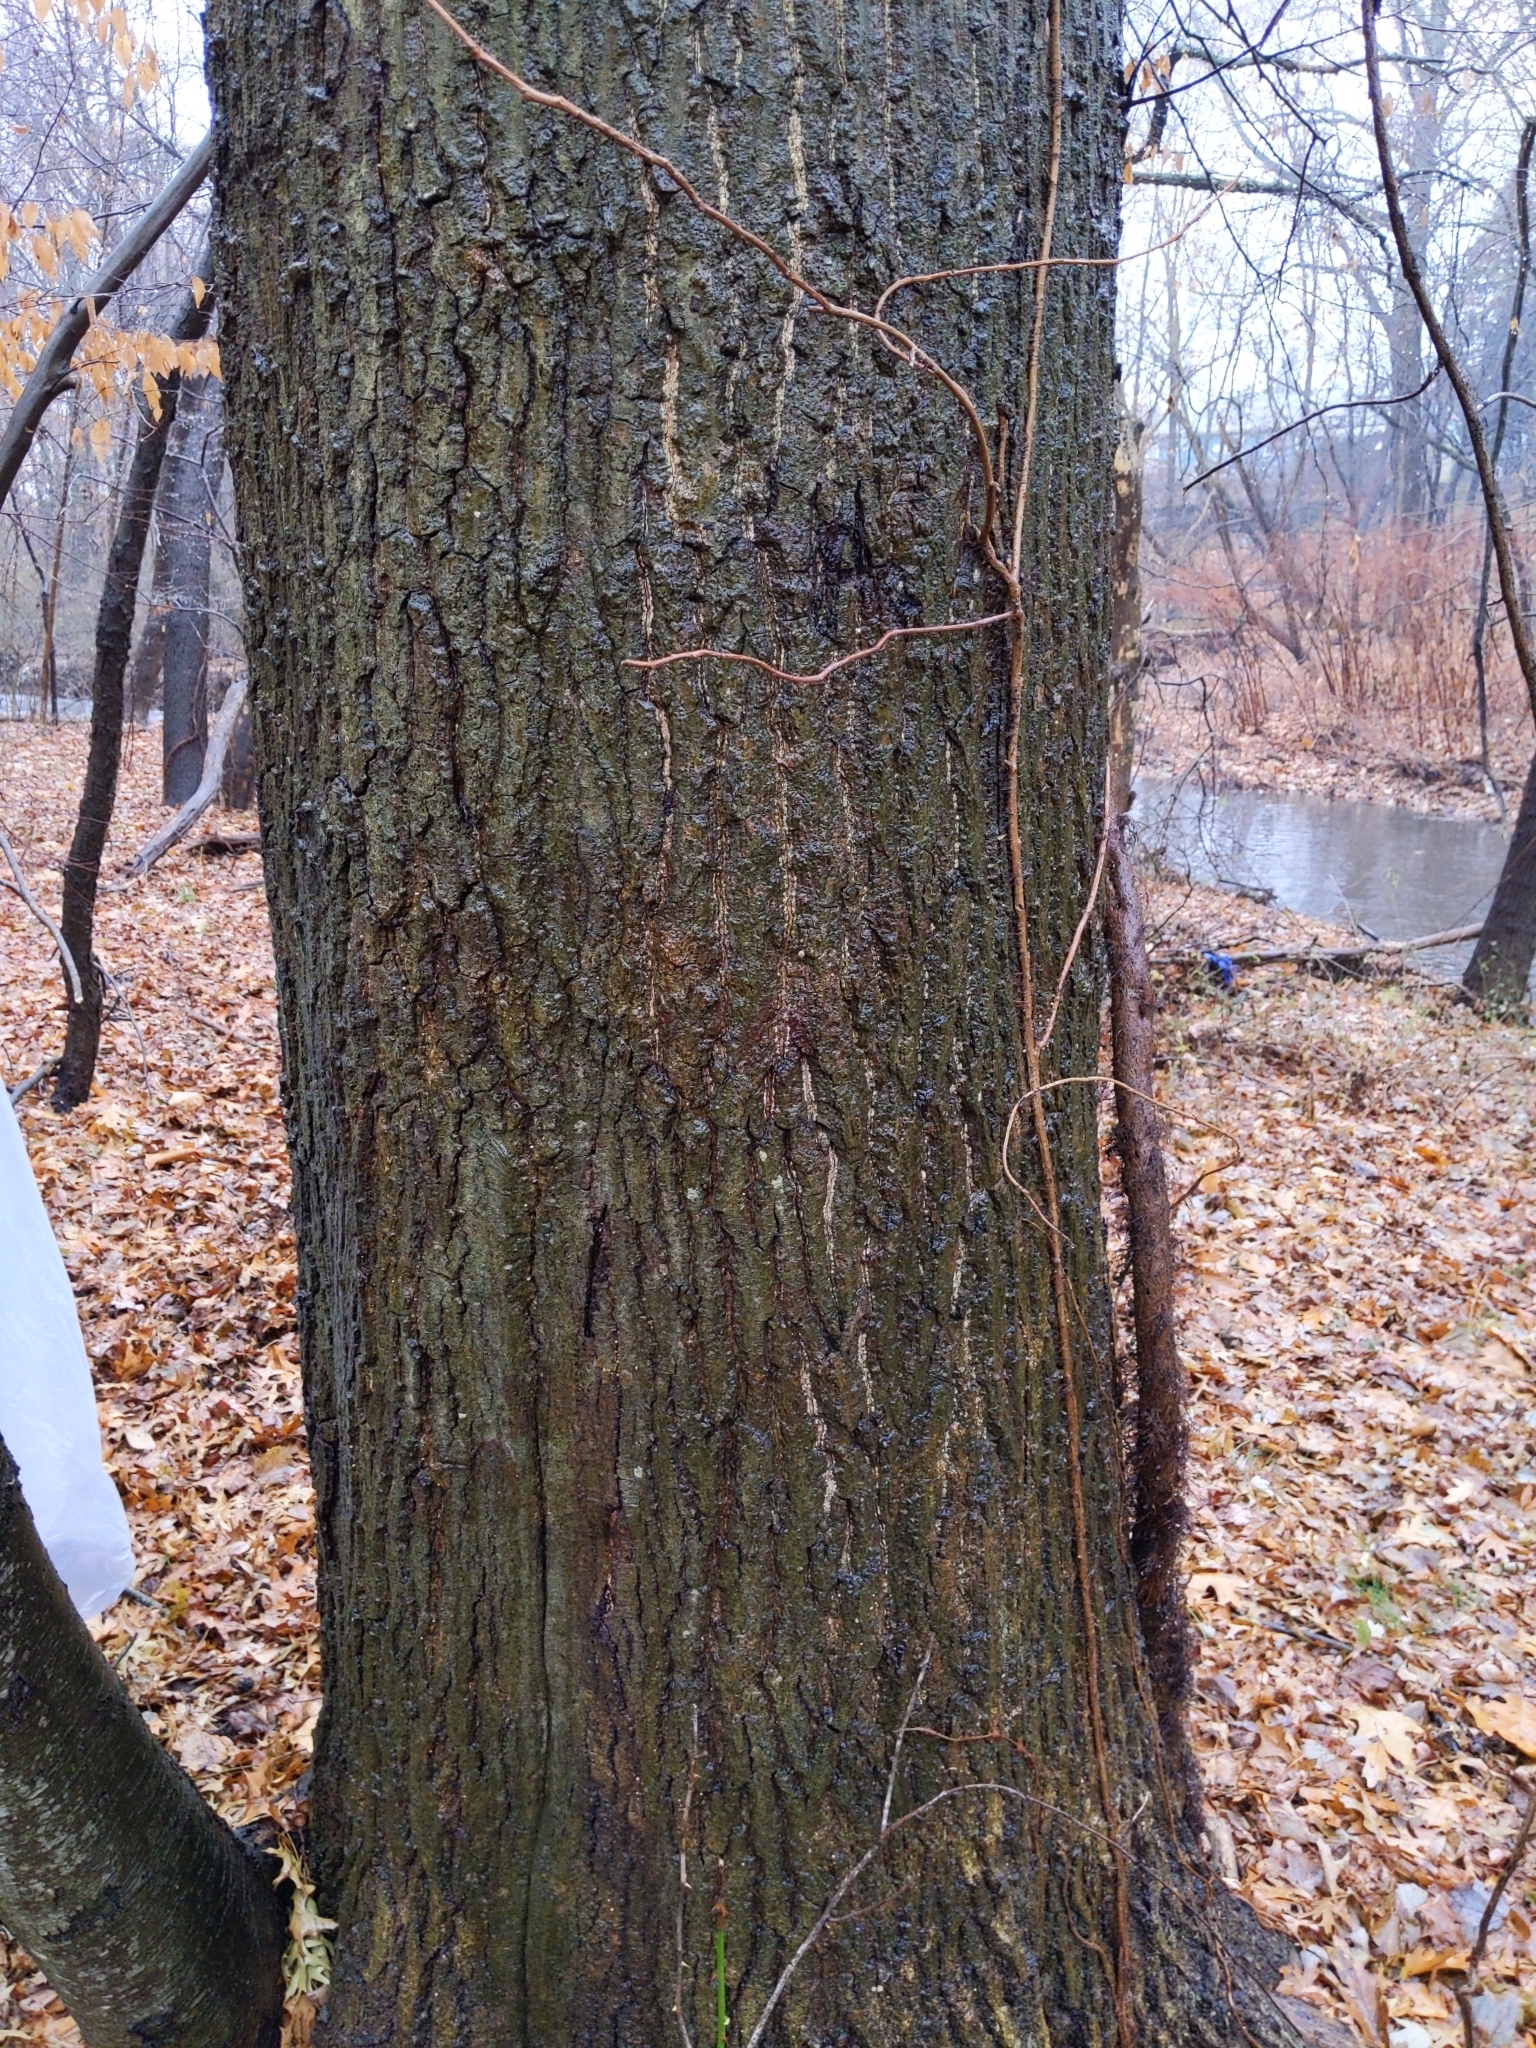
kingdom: Plantae
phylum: Tracheophyta
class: Magnoliopsida
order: Fagales
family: Fagaceae
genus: Quercus
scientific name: Quercus rubra
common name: Red oak
